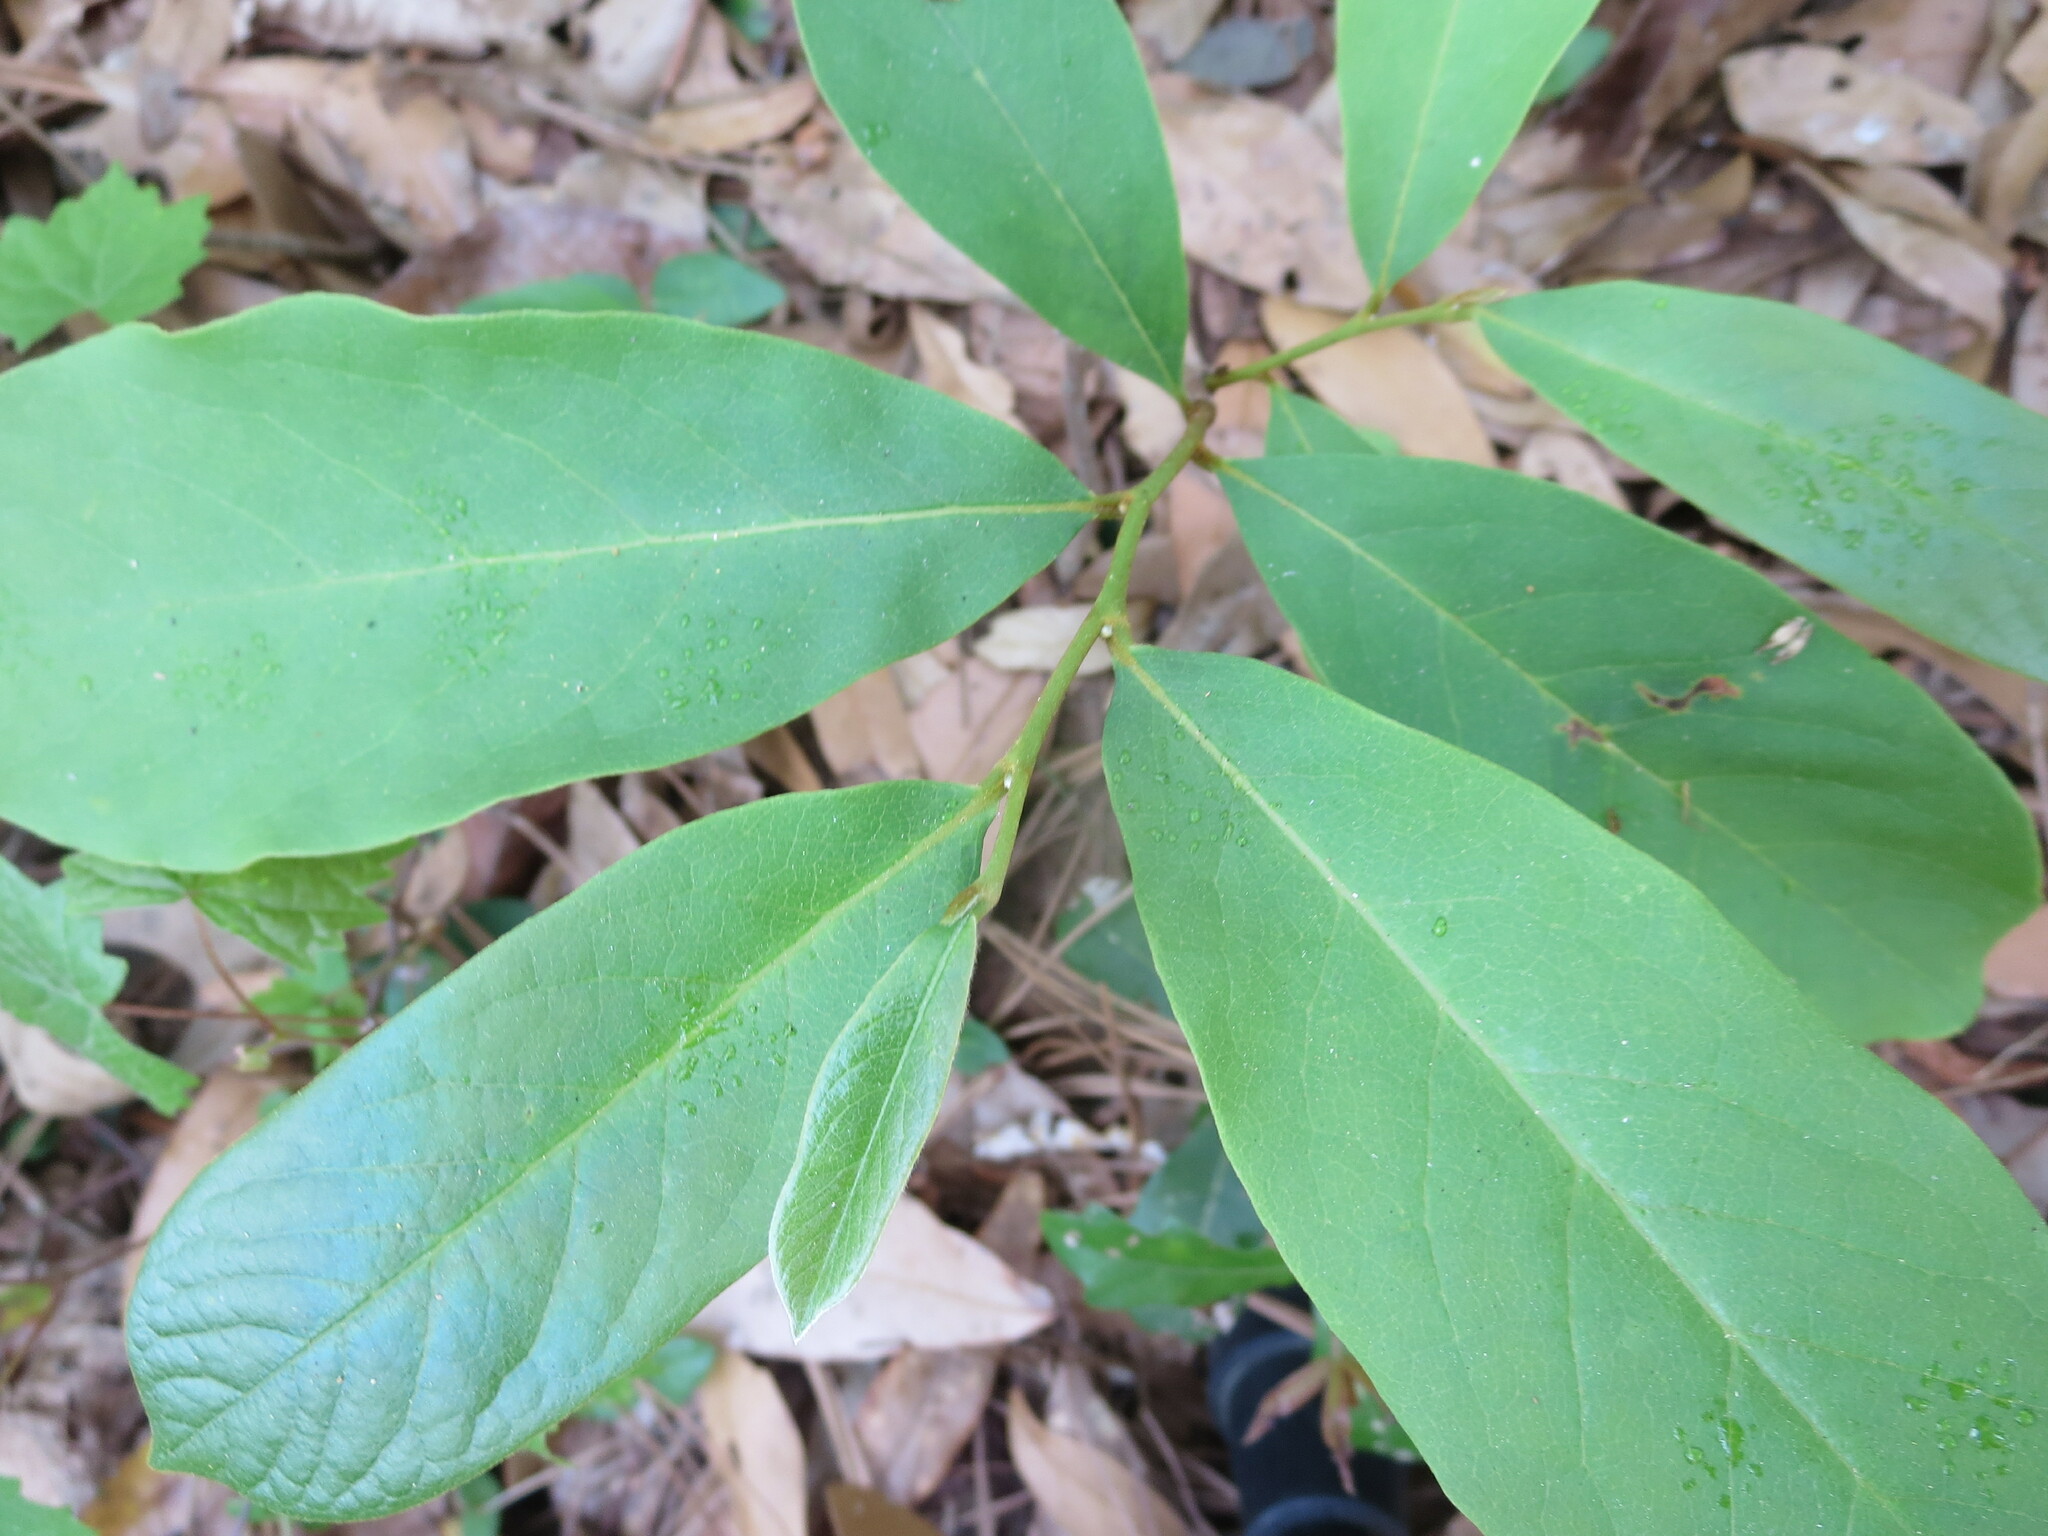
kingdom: Plantae
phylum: Tracheophyta
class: Magnoliopsida
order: Magnoliales
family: Annonaceae
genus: Asimina
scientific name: Asimina parviflora
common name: Dwarf pawpaw
